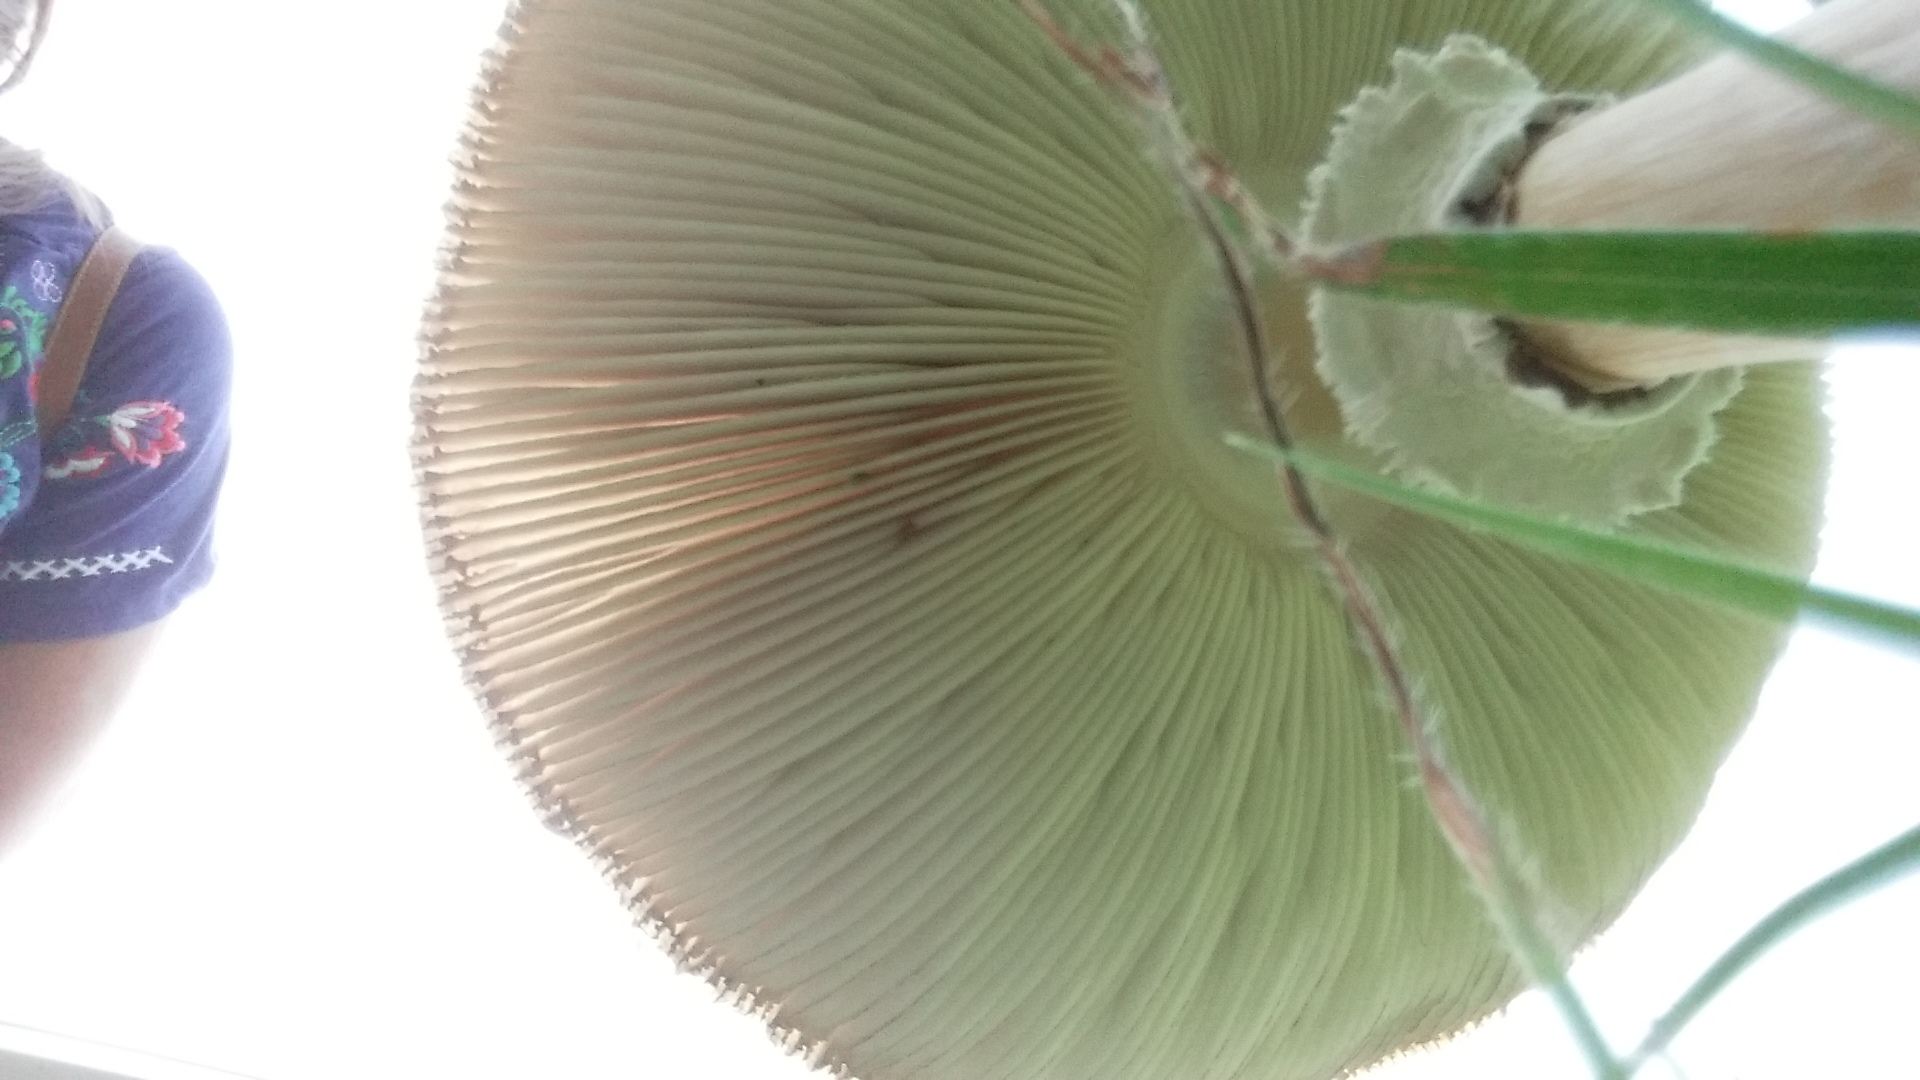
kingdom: Fungi
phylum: Basidiomycota
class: Agaricomycetes
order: Agaricales
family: Agaricaceae
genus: Chlorophyllum
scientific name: Chlorophyllum molybdites
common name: False parasol
